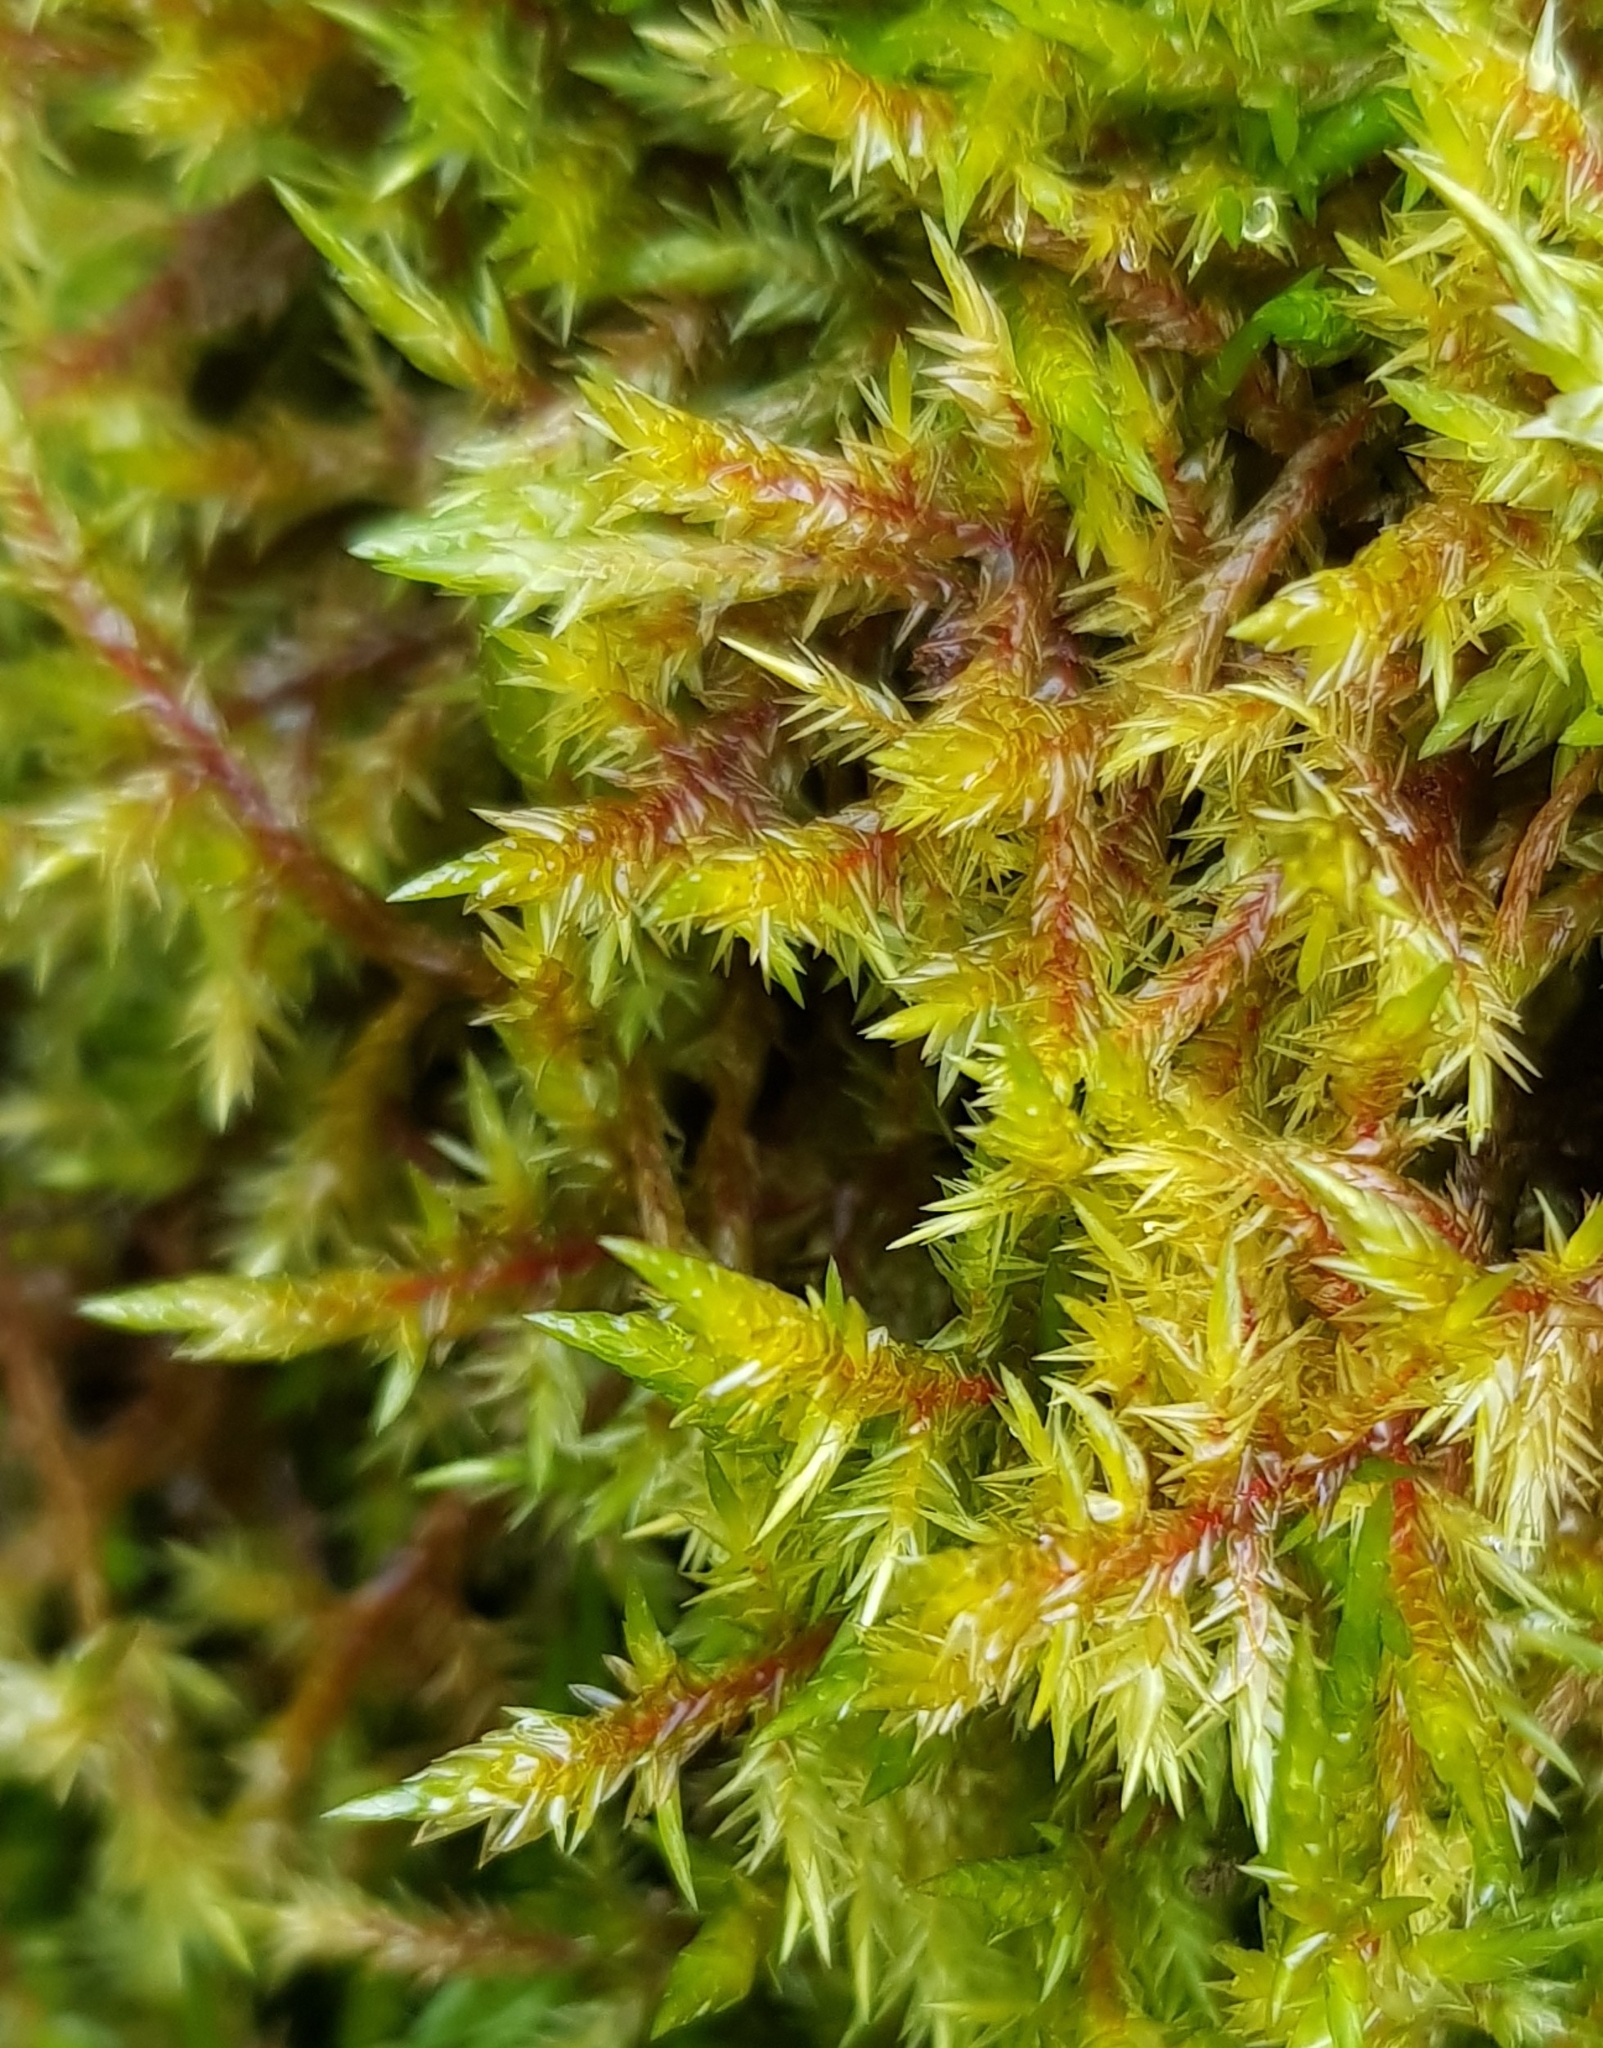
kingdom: Plantae
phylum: Bryophyta
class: Bryopsida
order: Hypnales
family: Pylaisiaceae
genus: Calliergonella
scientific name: Calliergonella cuspidata
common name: Common large wetland moss
